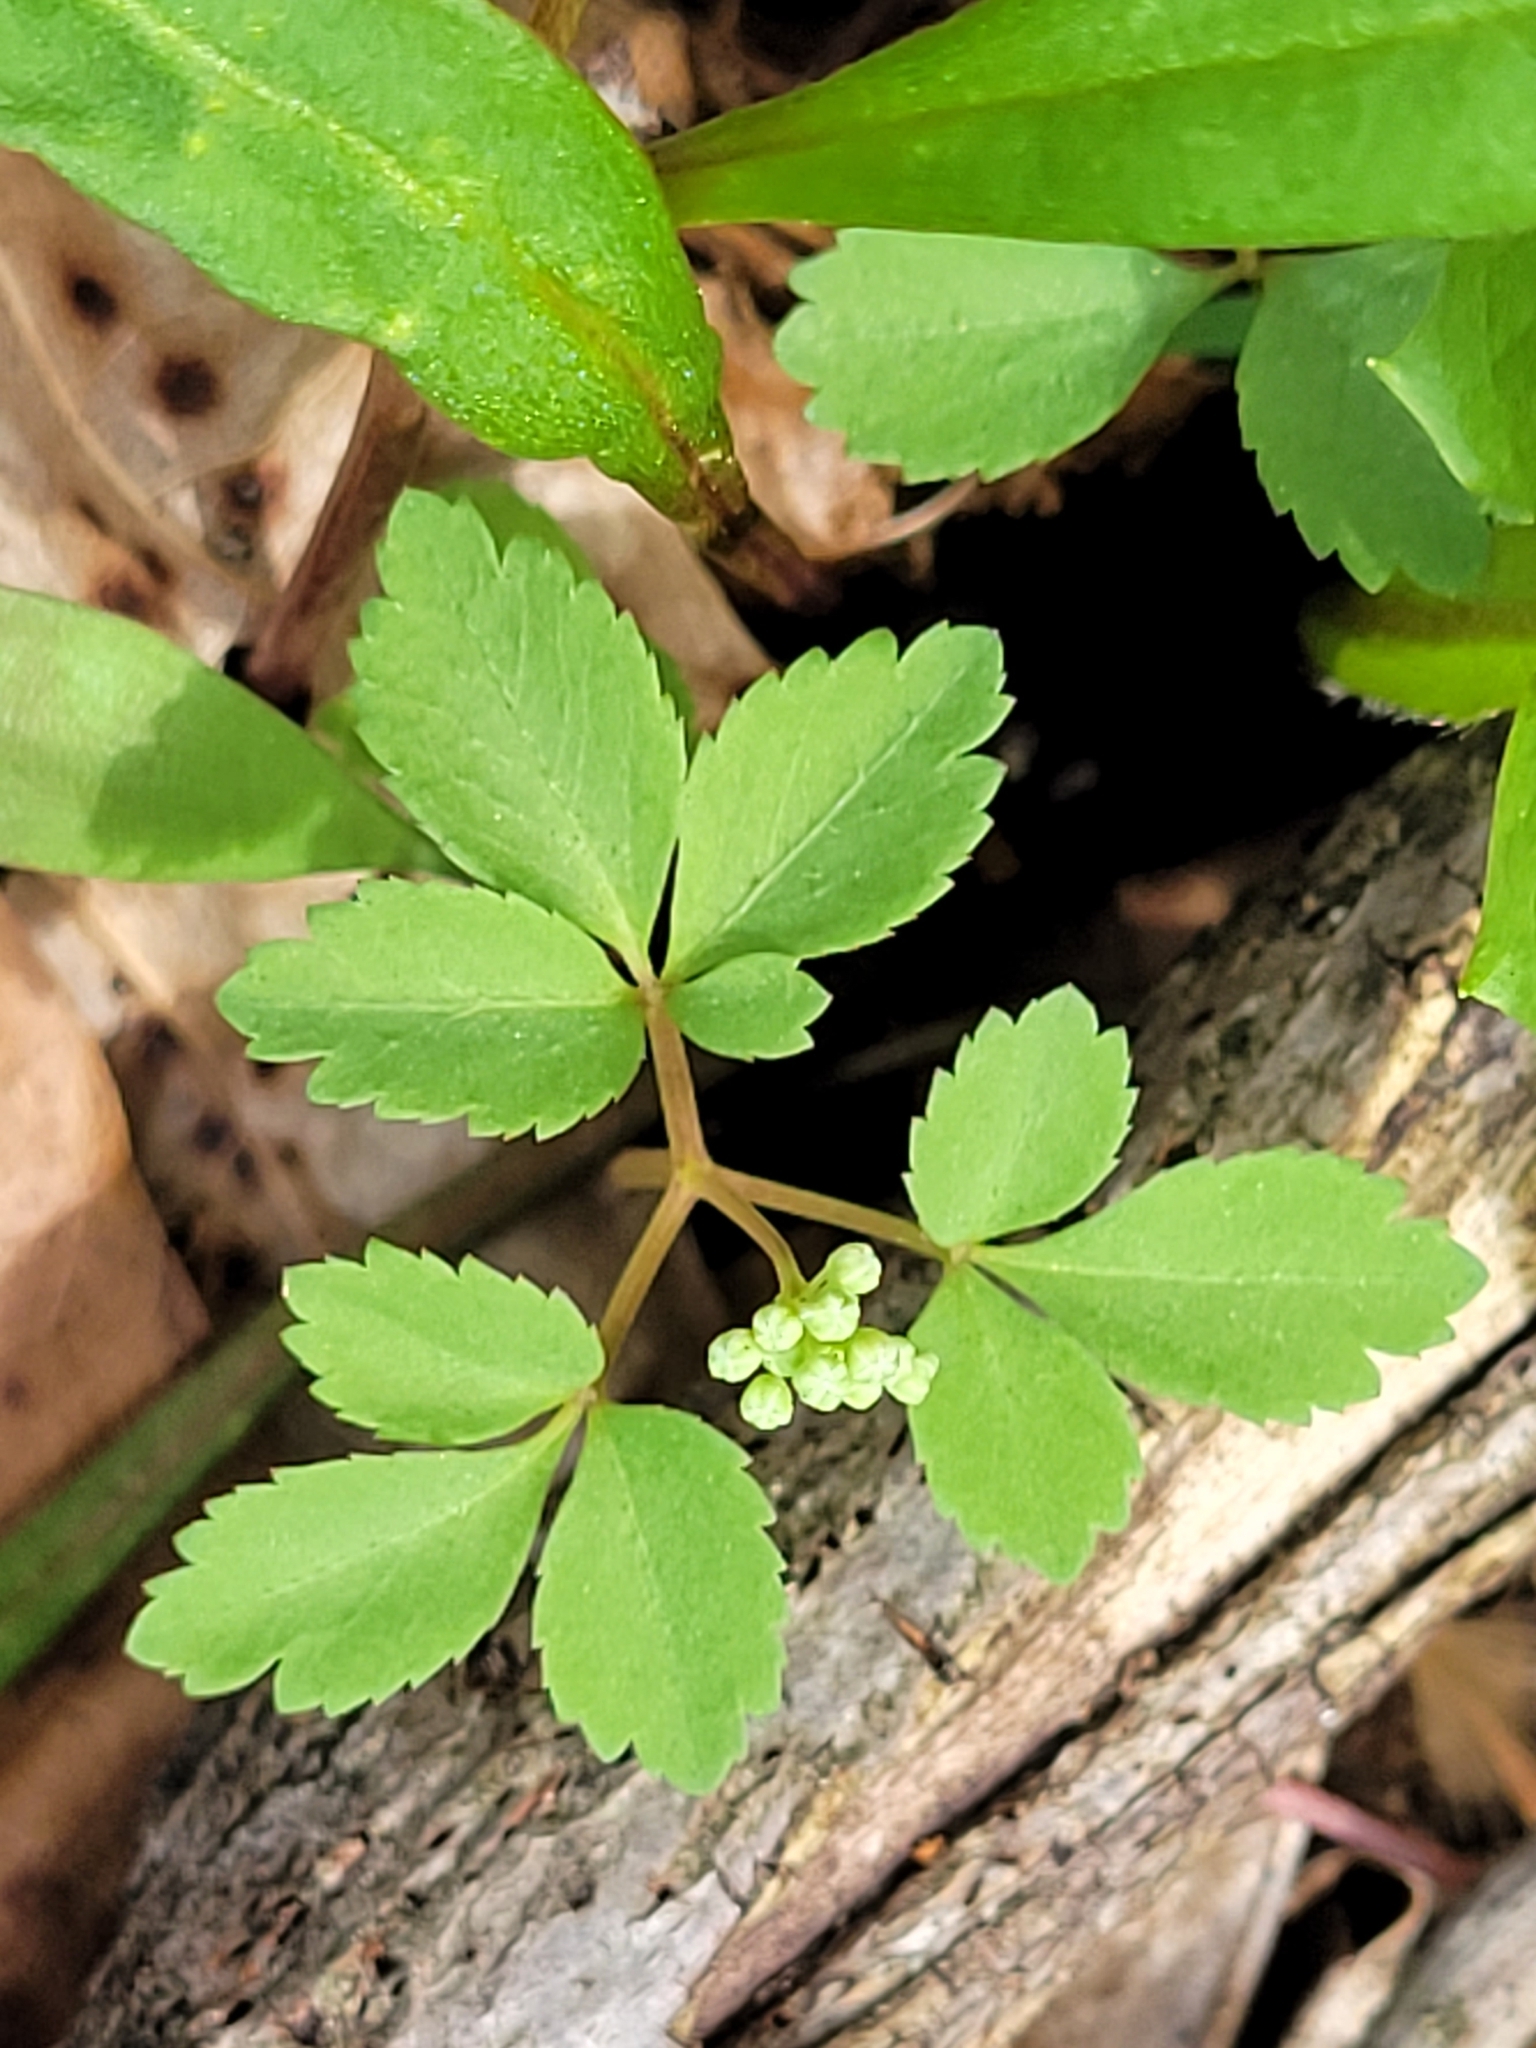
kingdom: Plantae
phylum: Tracheophyta
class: Magnoliopsida
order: Apiales
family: Araliaceae
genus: Panax
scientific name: Panax trifolius
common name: Dwarf ginseng
